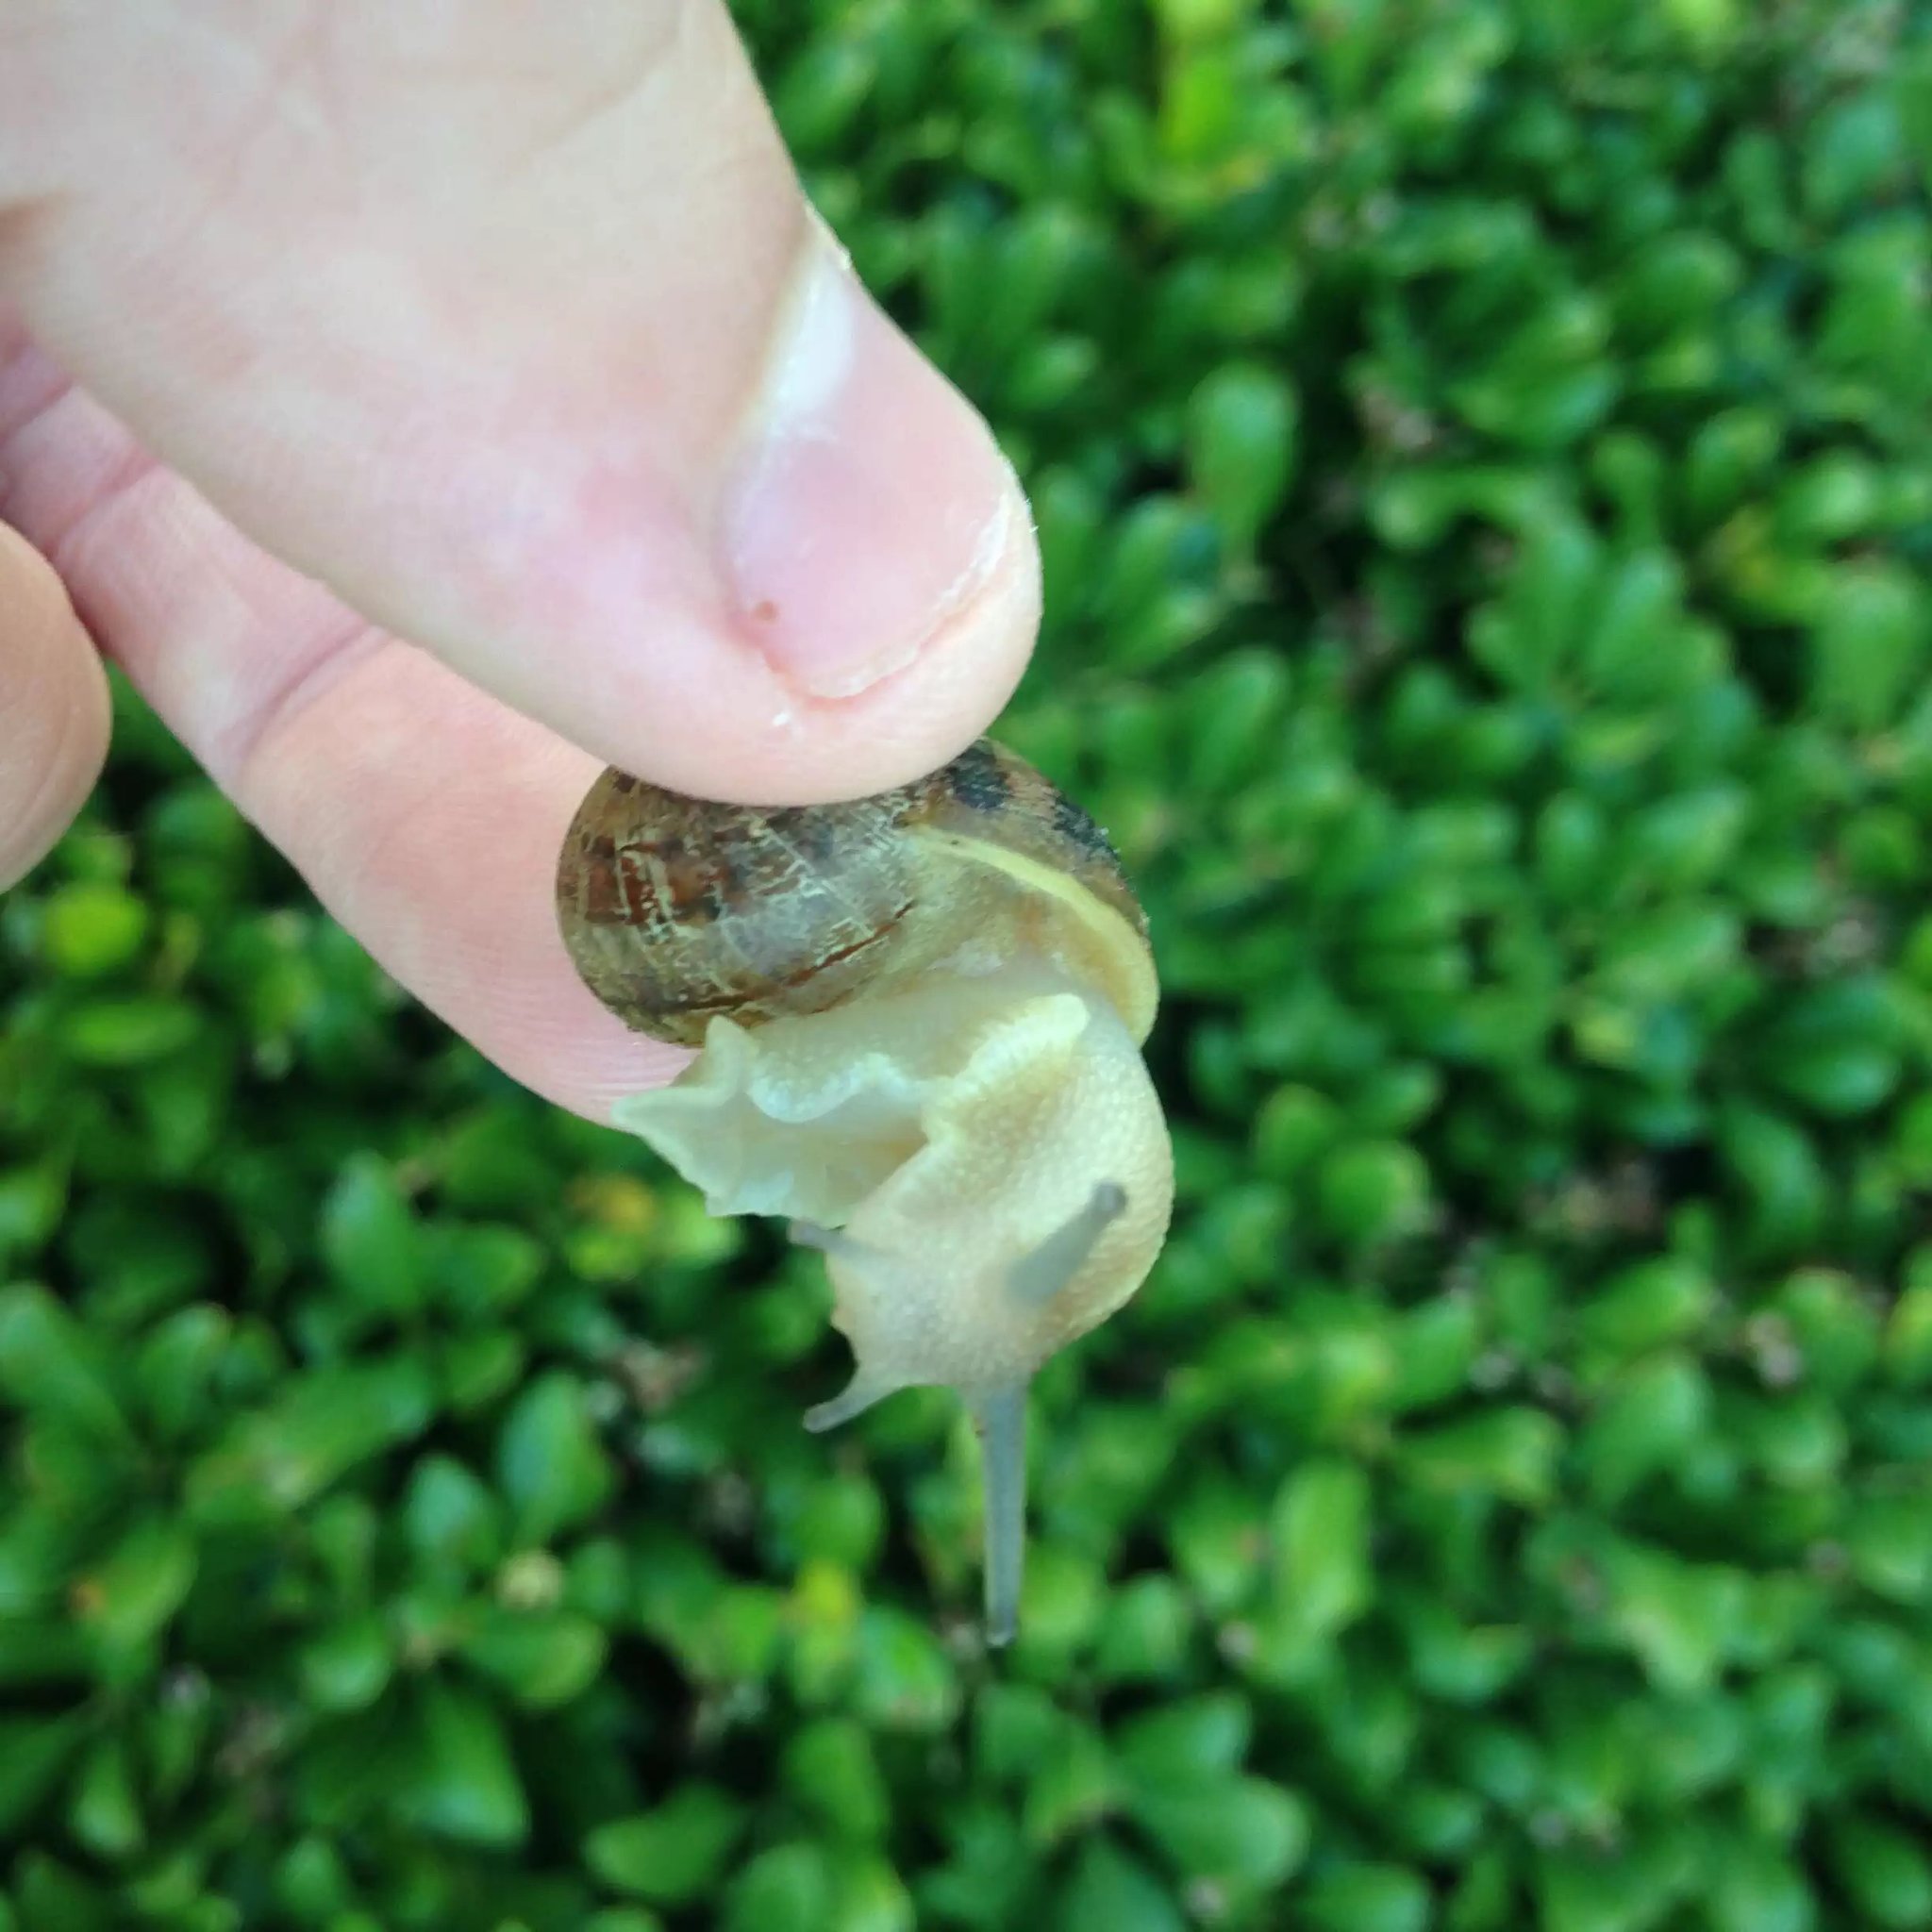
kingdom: Animalia
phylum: Mollusca
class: Gastropoda
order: Stylommatophora
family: Helicidae
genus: Cornu
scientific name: Cornu aspersum
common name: Brown garden snail
